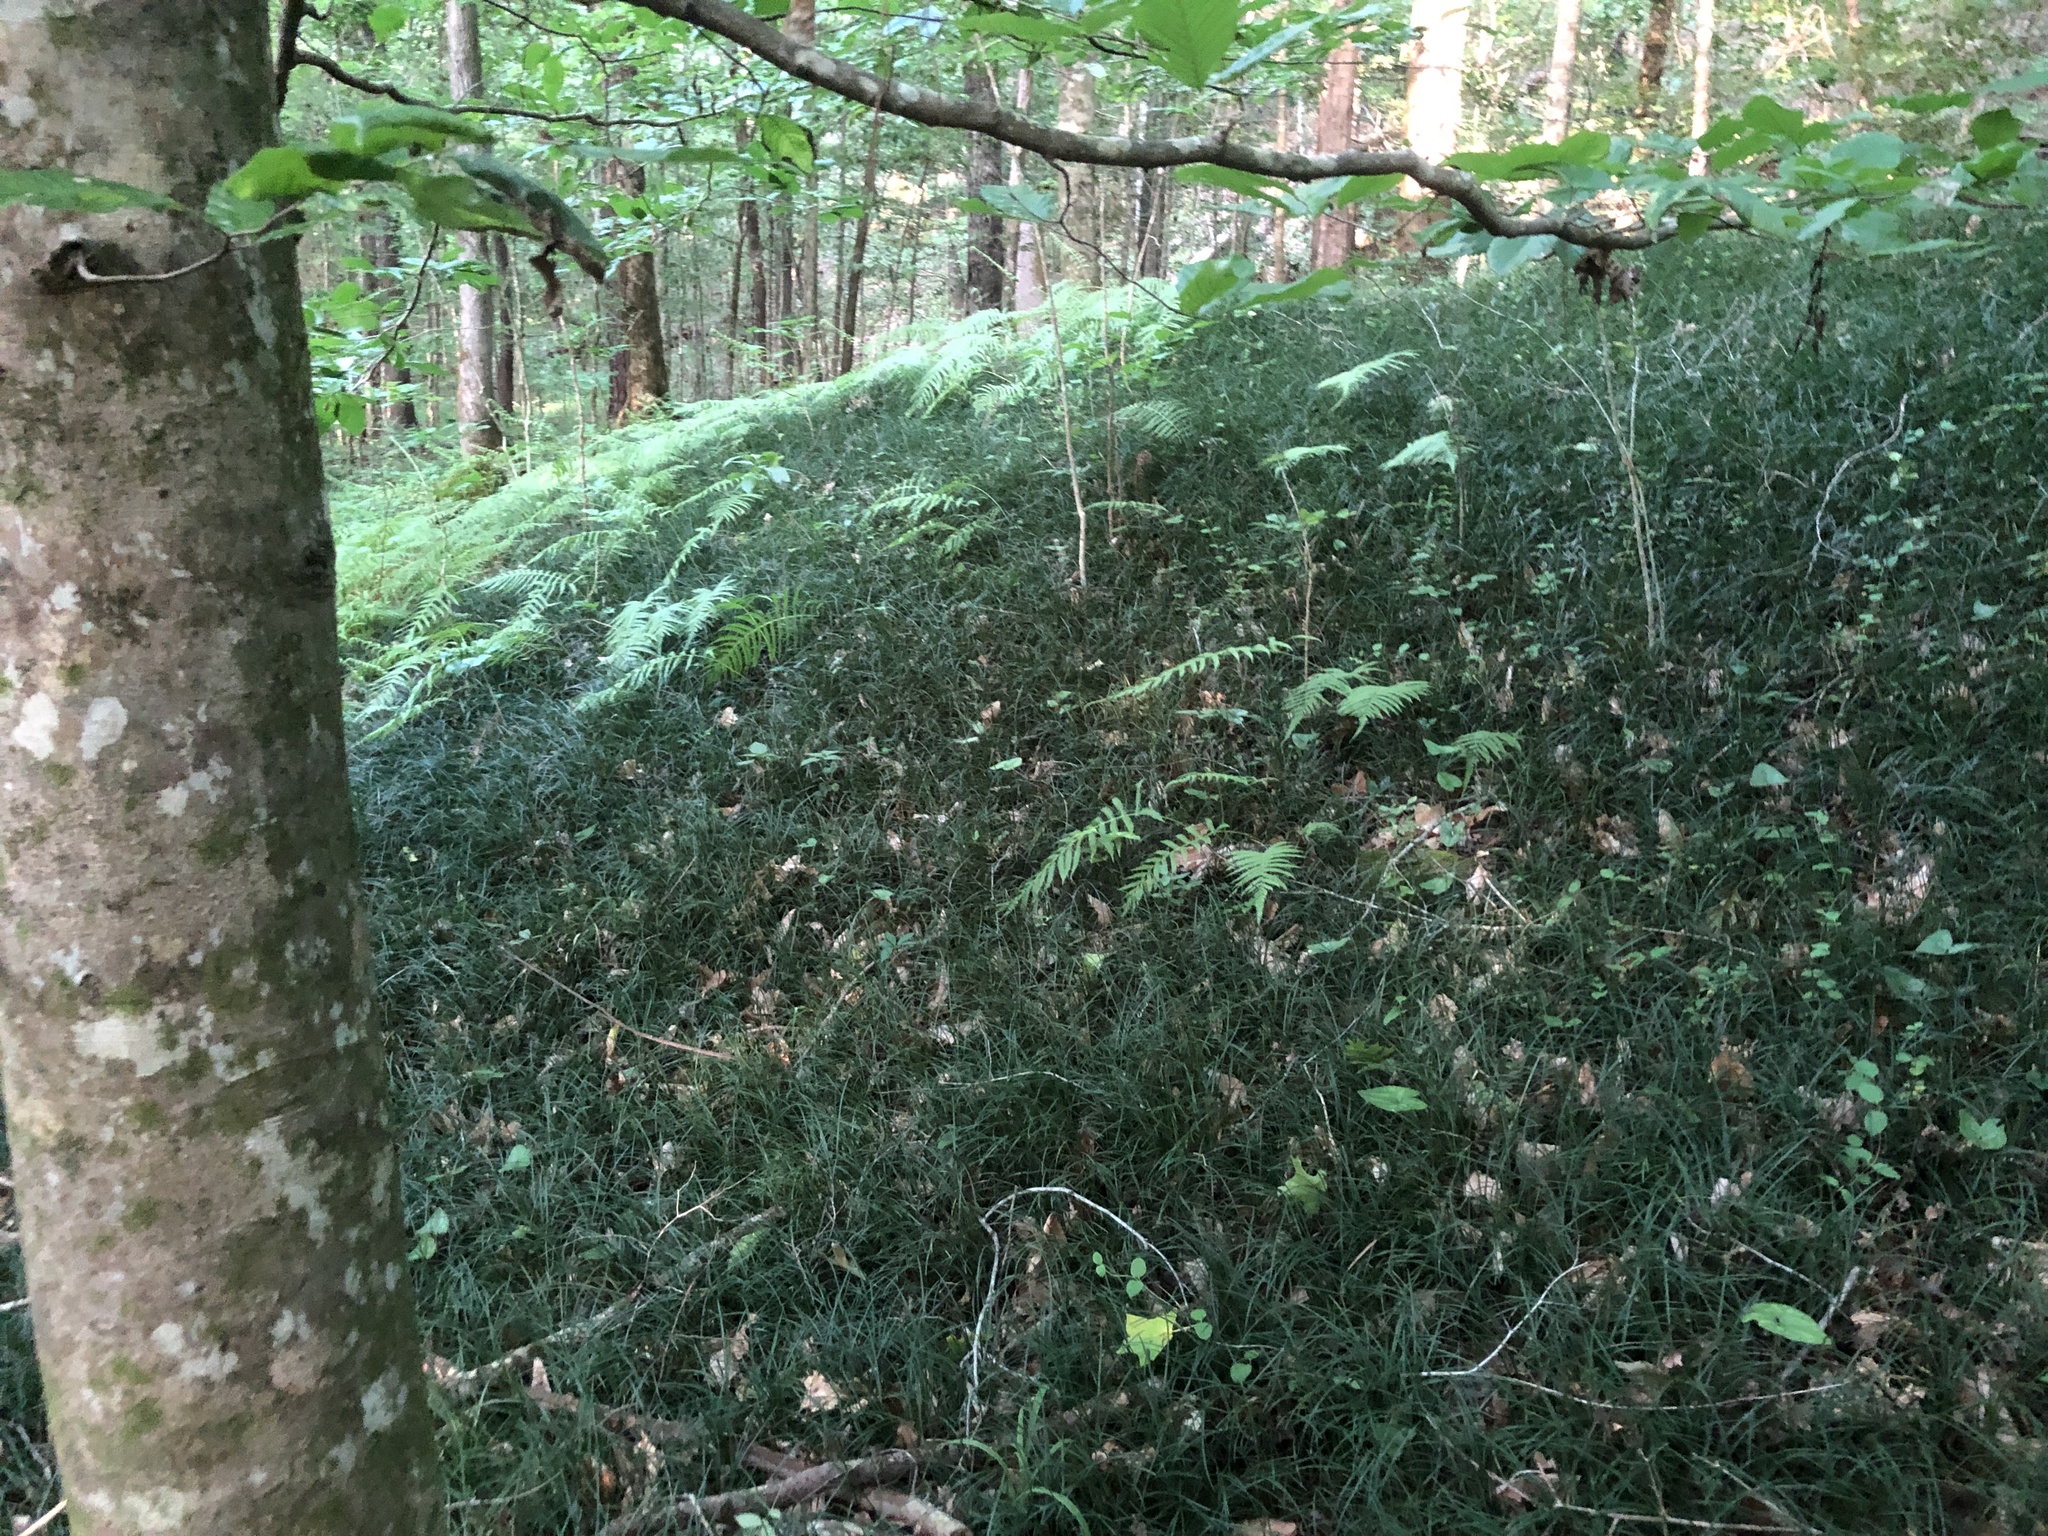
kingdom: Plantae
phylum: Tracheophyta
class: Liliopsida
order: Asparagales
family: Asparagaceae
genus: Liriope
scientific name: Liriope spicata
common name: Creeping liriope
